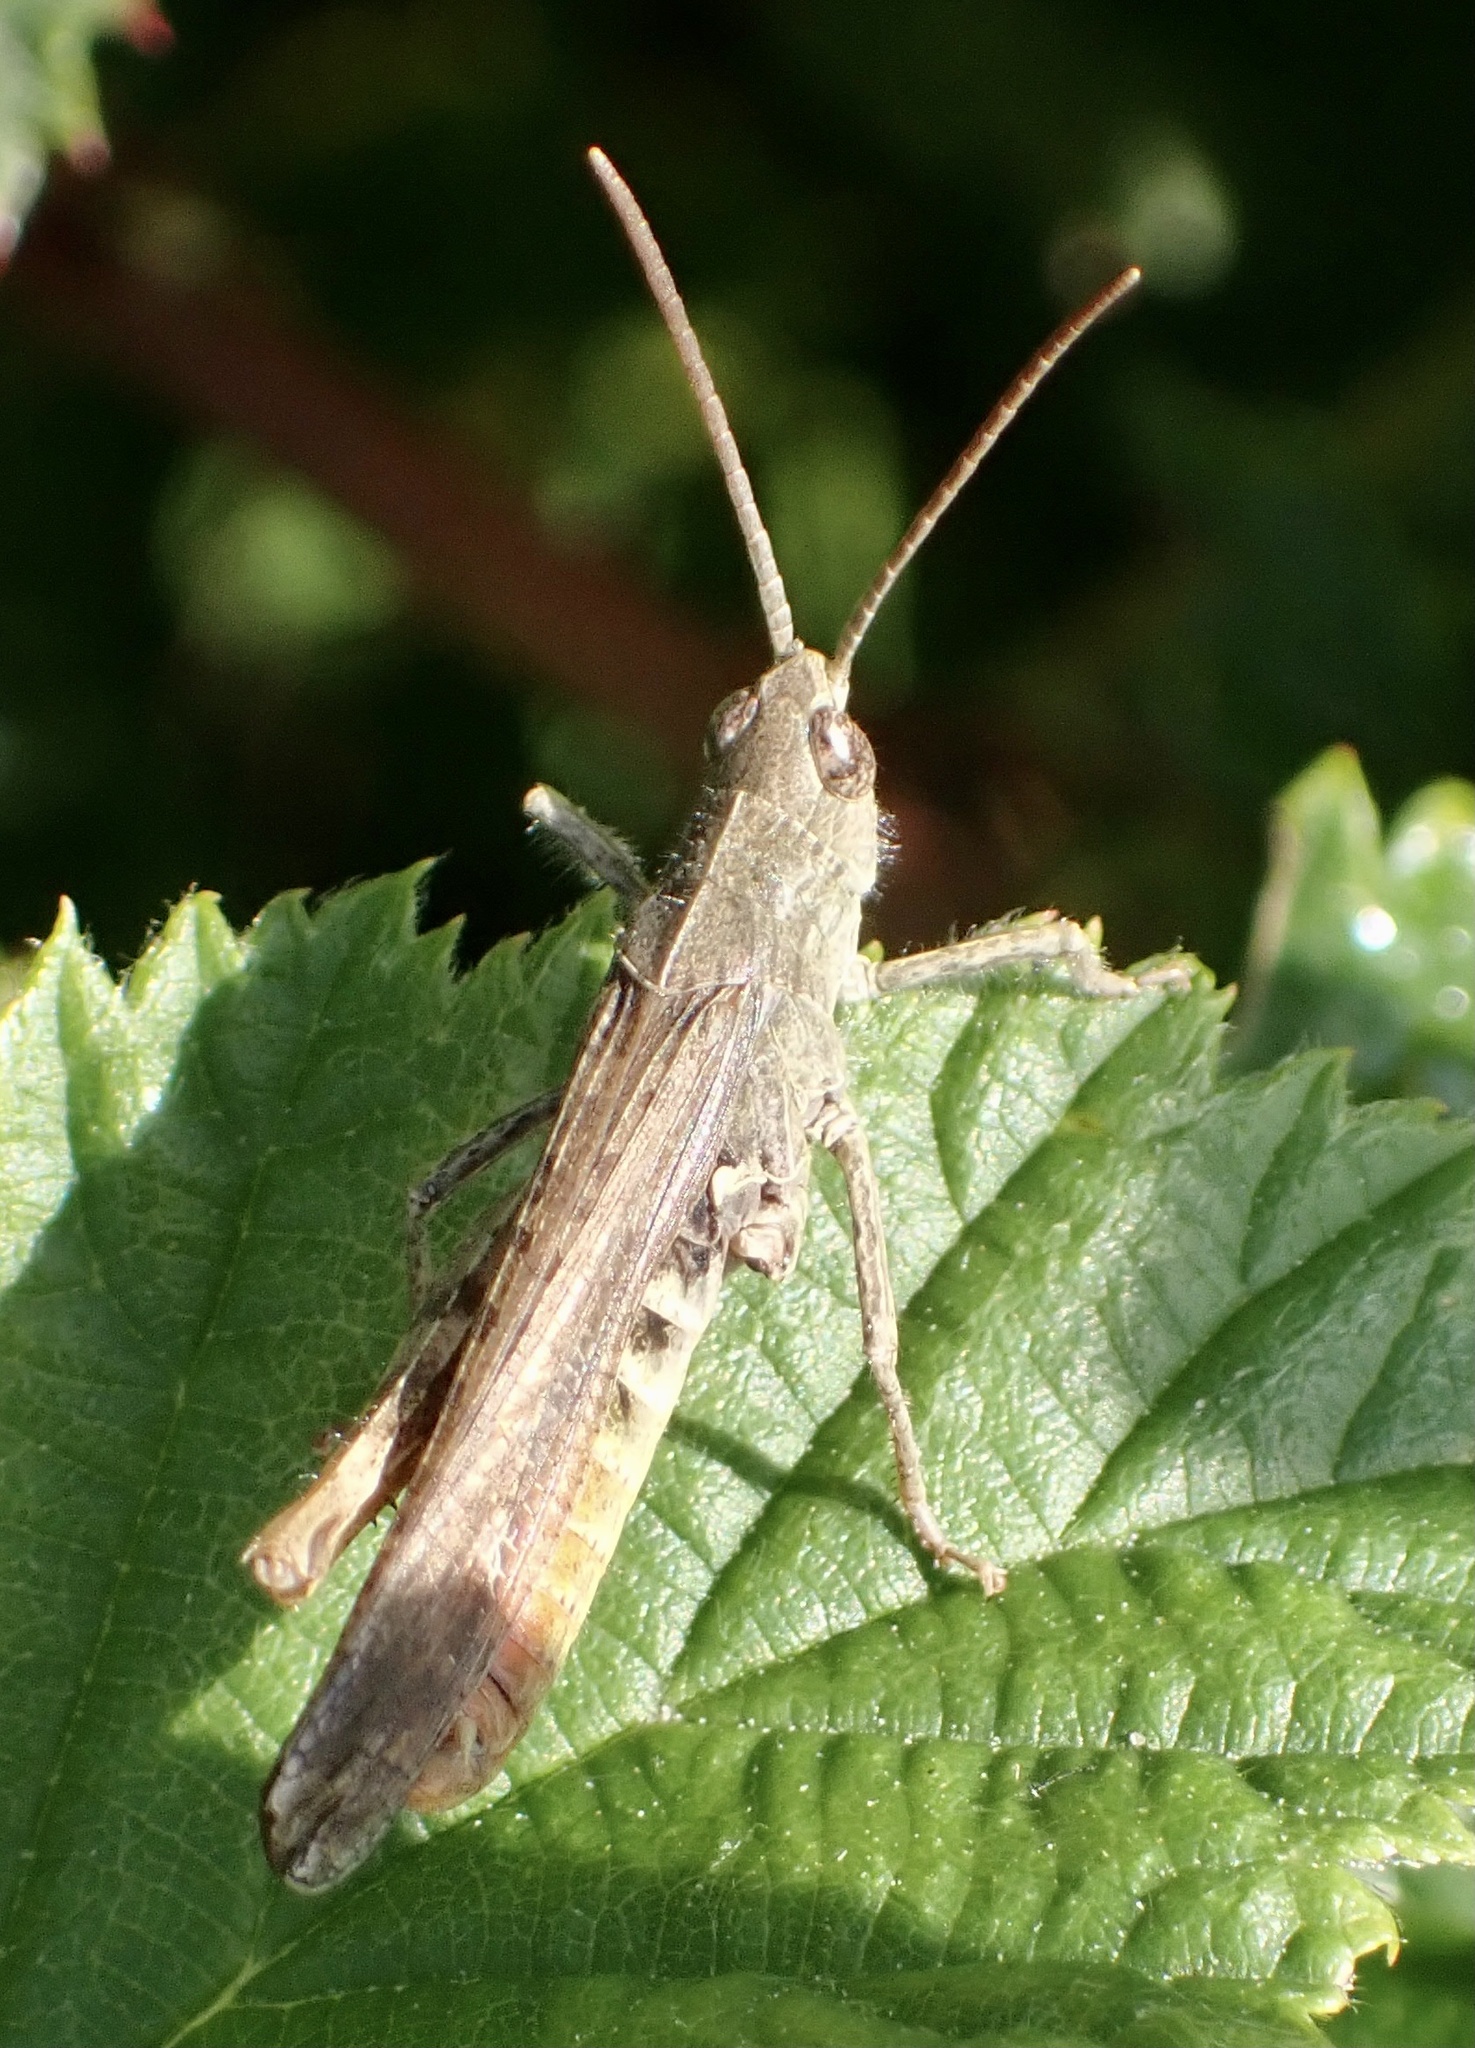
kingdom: Animalia
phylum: Arthropoda
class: Insecta
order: Orthoptera
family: Acrididae
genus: Chorthippus
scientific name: Chorthippus brunneus
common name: Field grasshopper
